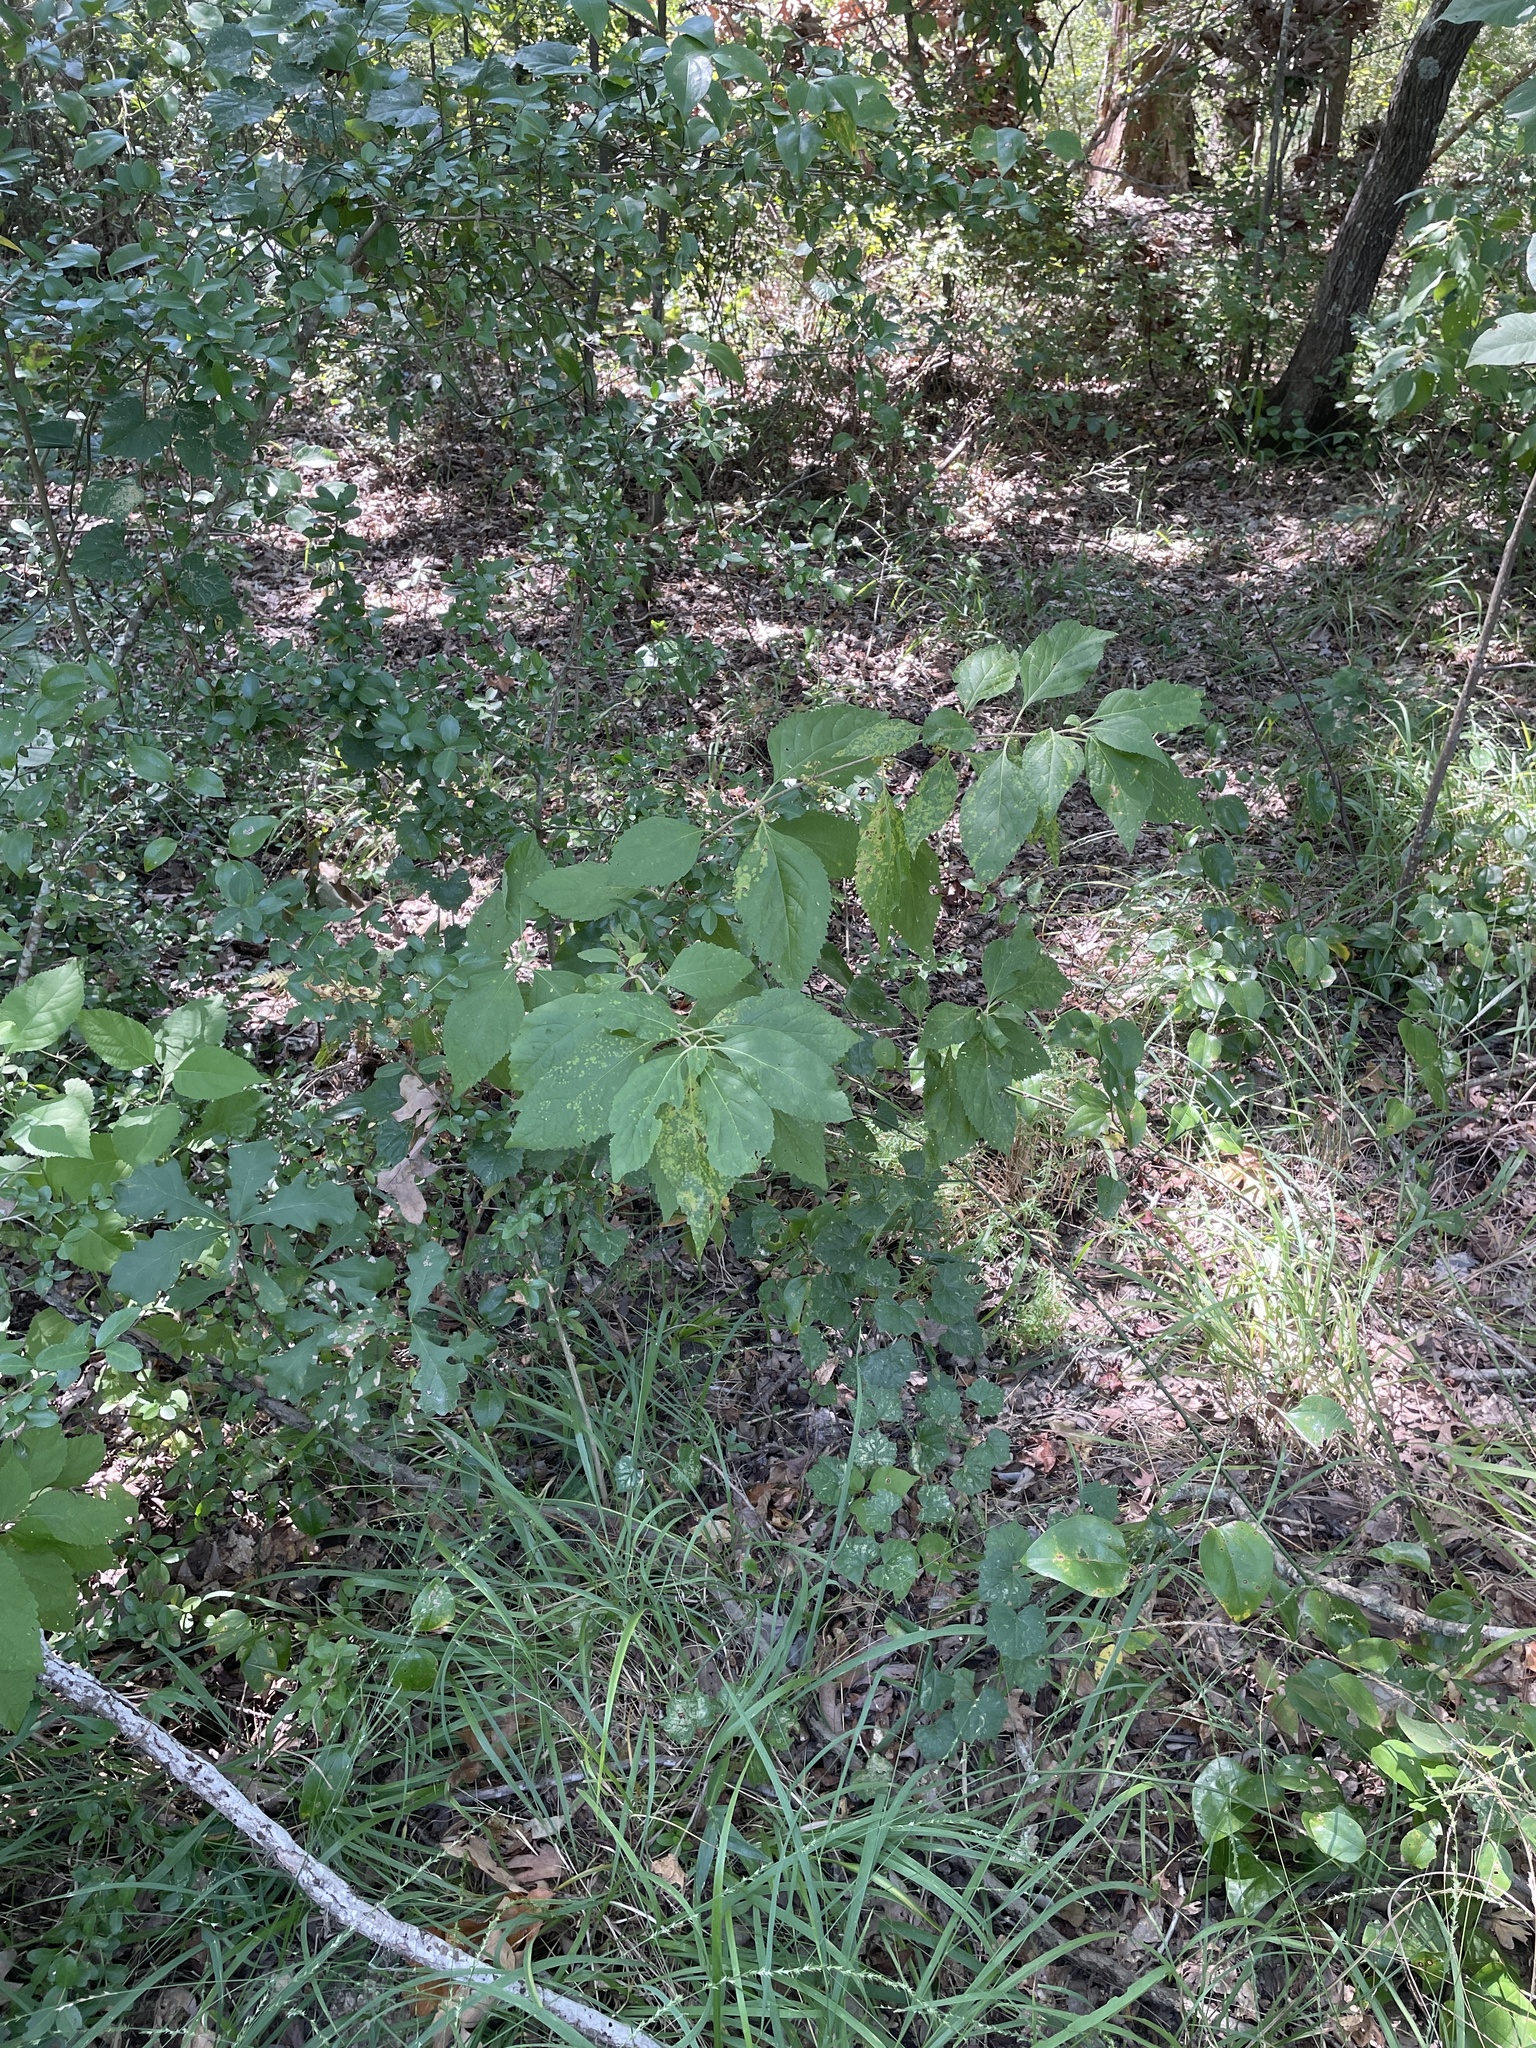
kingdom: Plantae
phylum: Tracheophyta
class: Magnoliopsida
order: Lamiales
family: Lamiaceae
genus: Callicarpa
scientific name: Callicarpa americana
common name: American beautyberry
